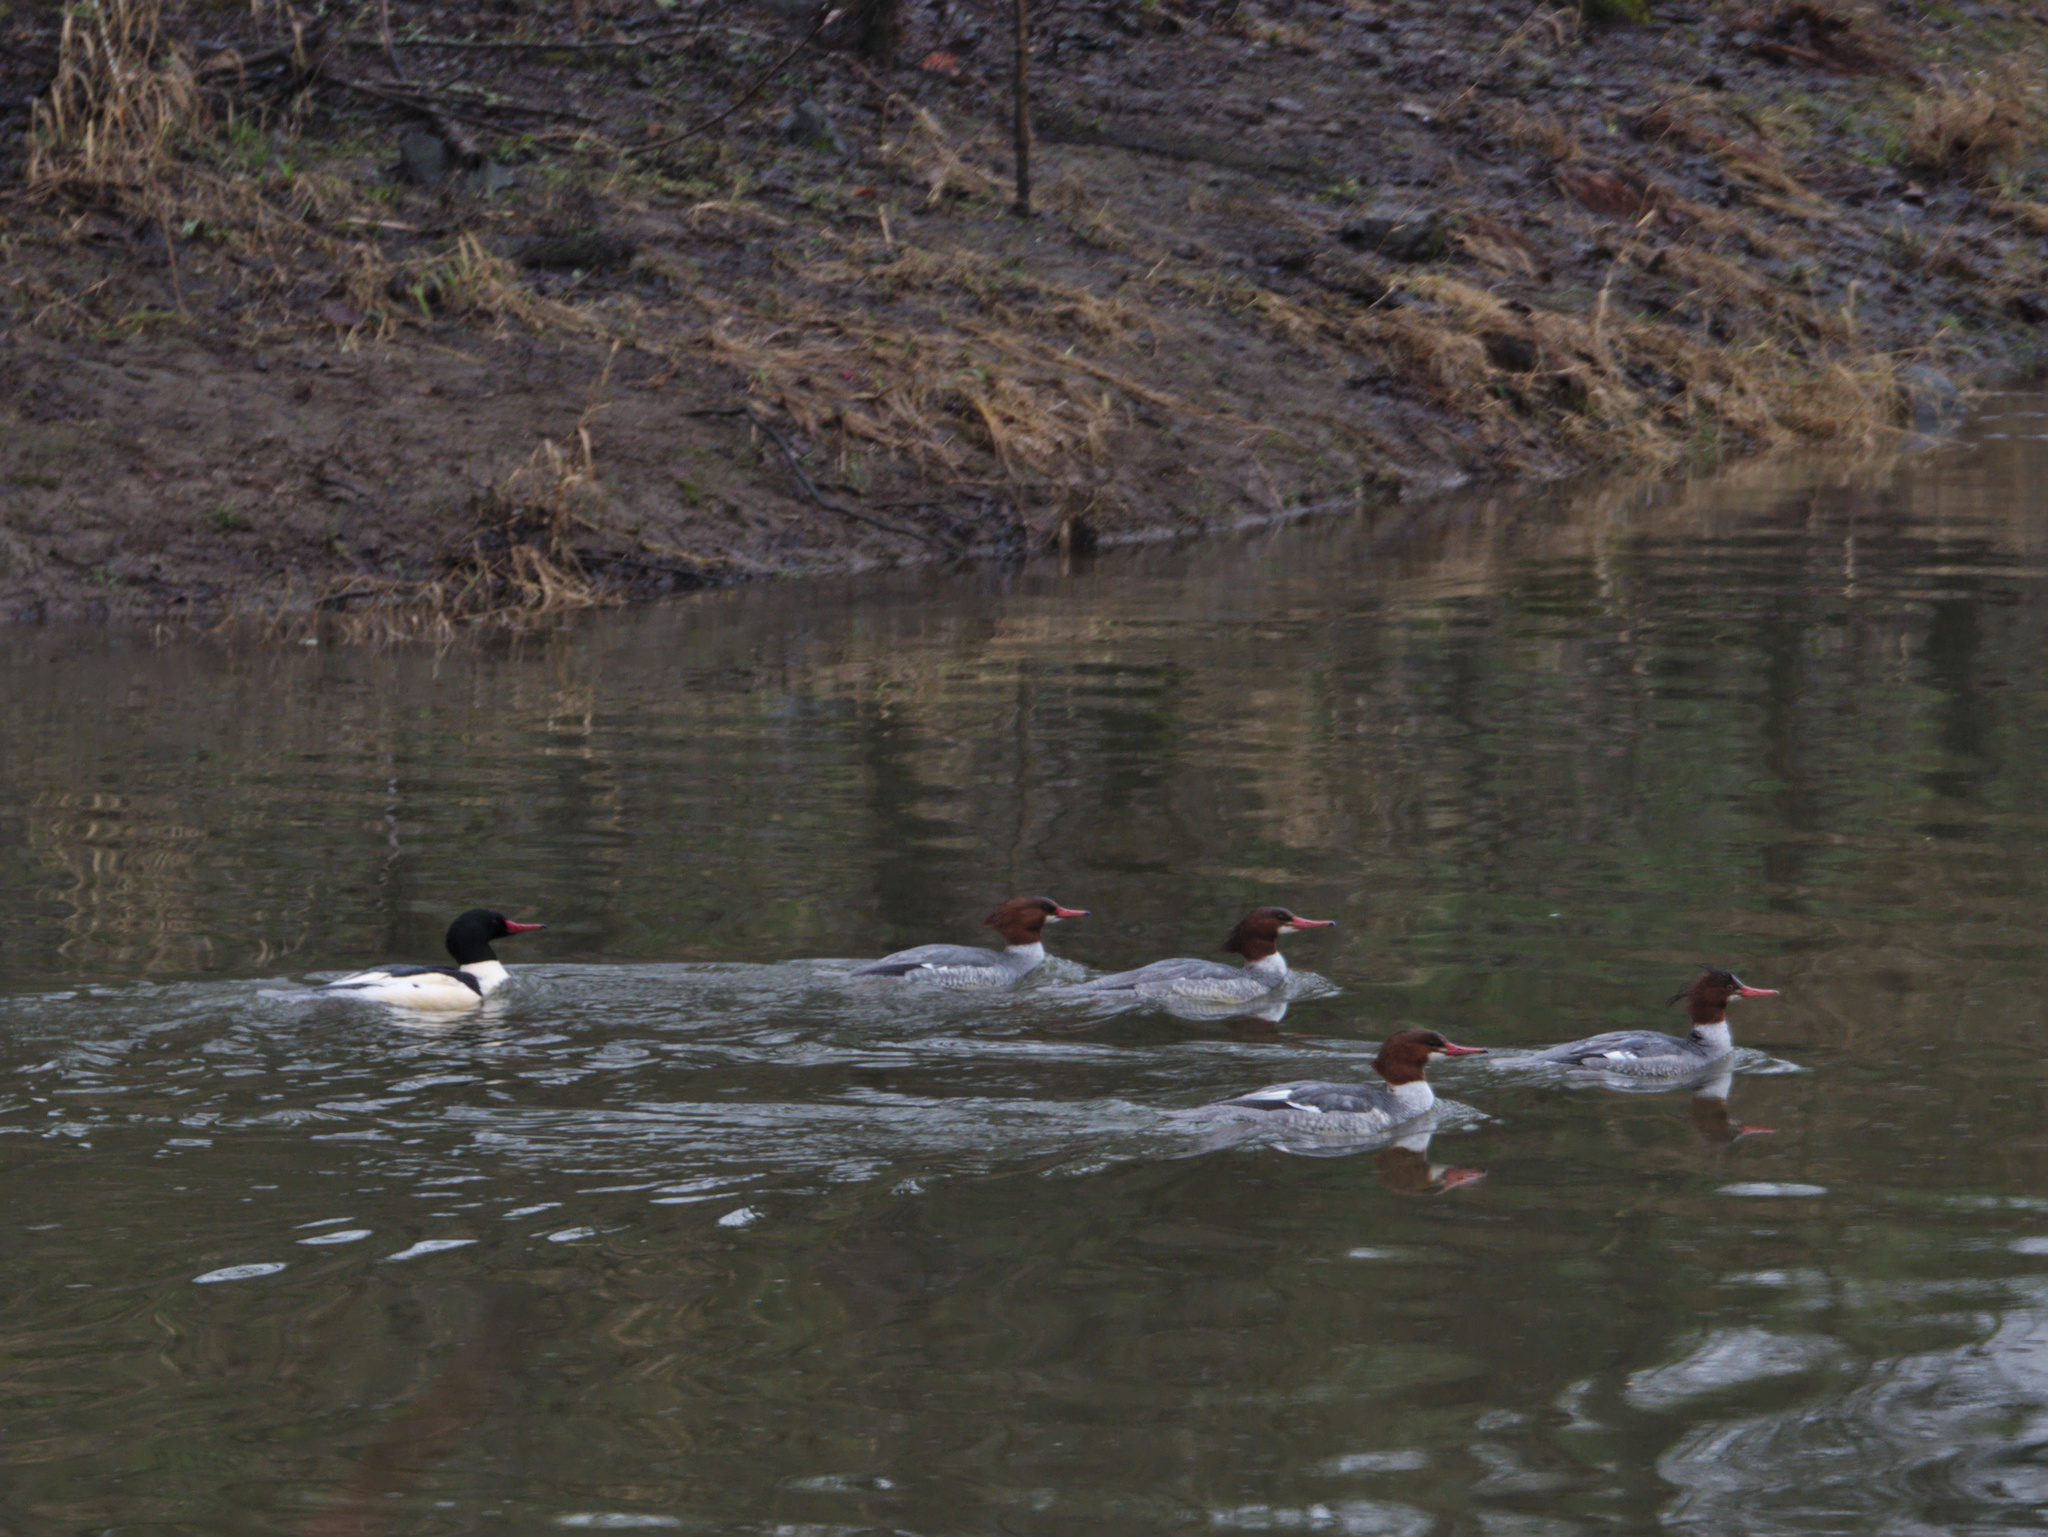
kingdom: Animalia
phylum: Chordata
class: Aves
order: Anseriformes
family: Anatidae
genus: Mergus
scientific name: Mergus merganser
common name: Common merganser
